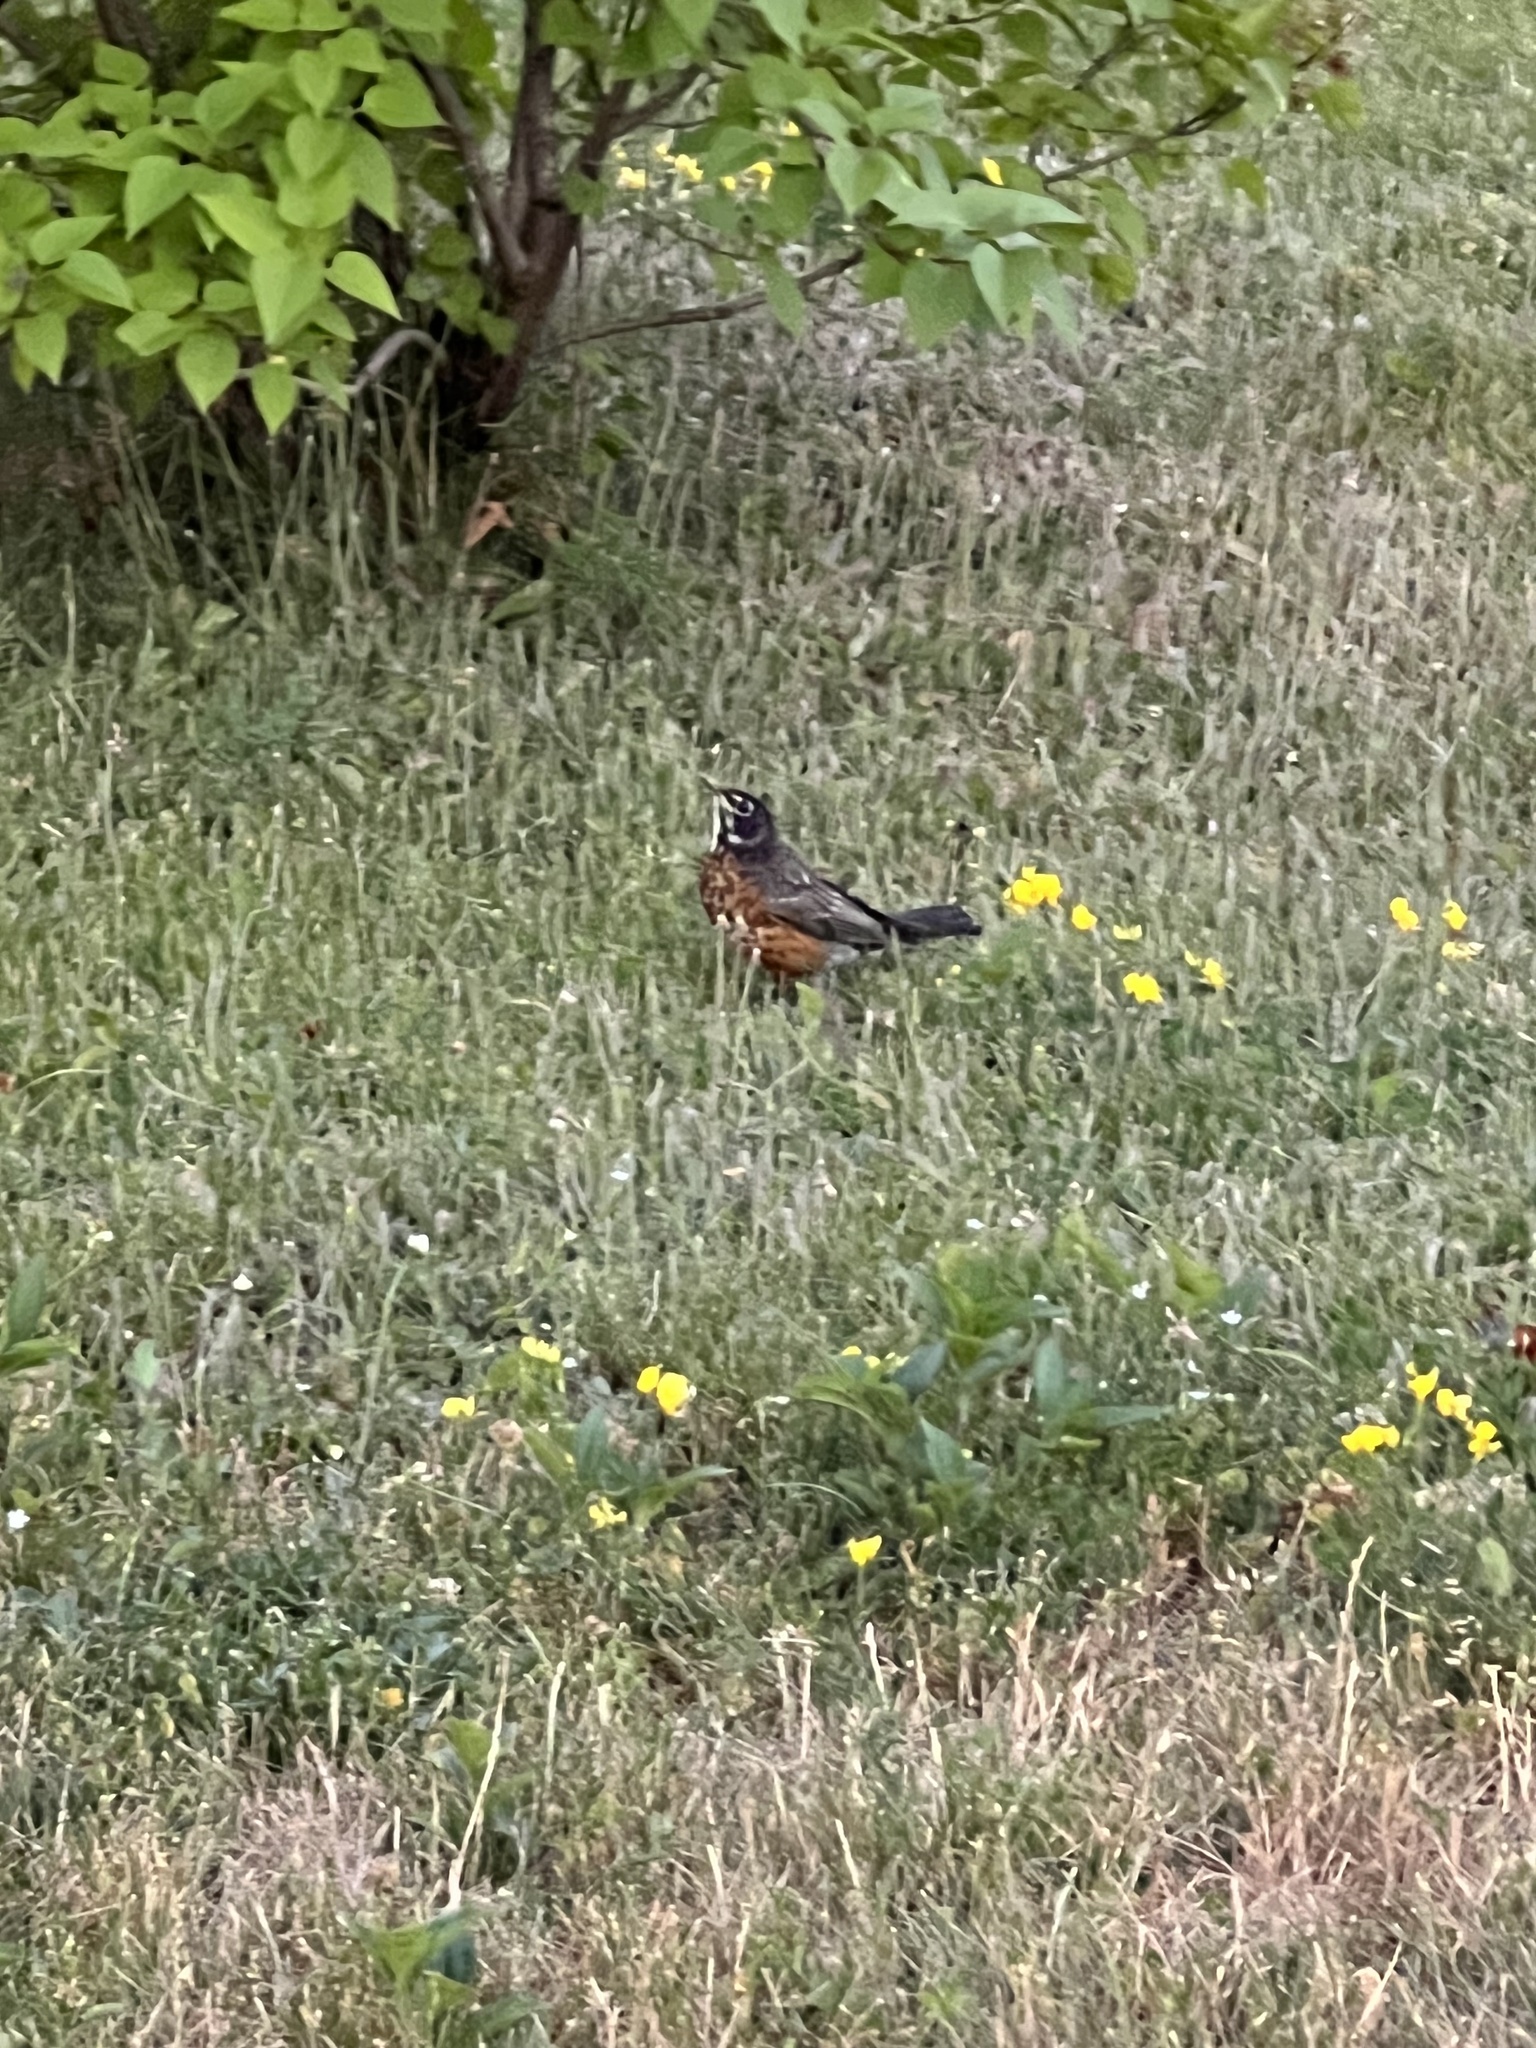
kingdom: Animalia
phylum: Chordata
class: Aves
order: Passeriformes
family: Turdidae
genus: Turdus
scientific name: Turdus migratorius
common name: American robin
